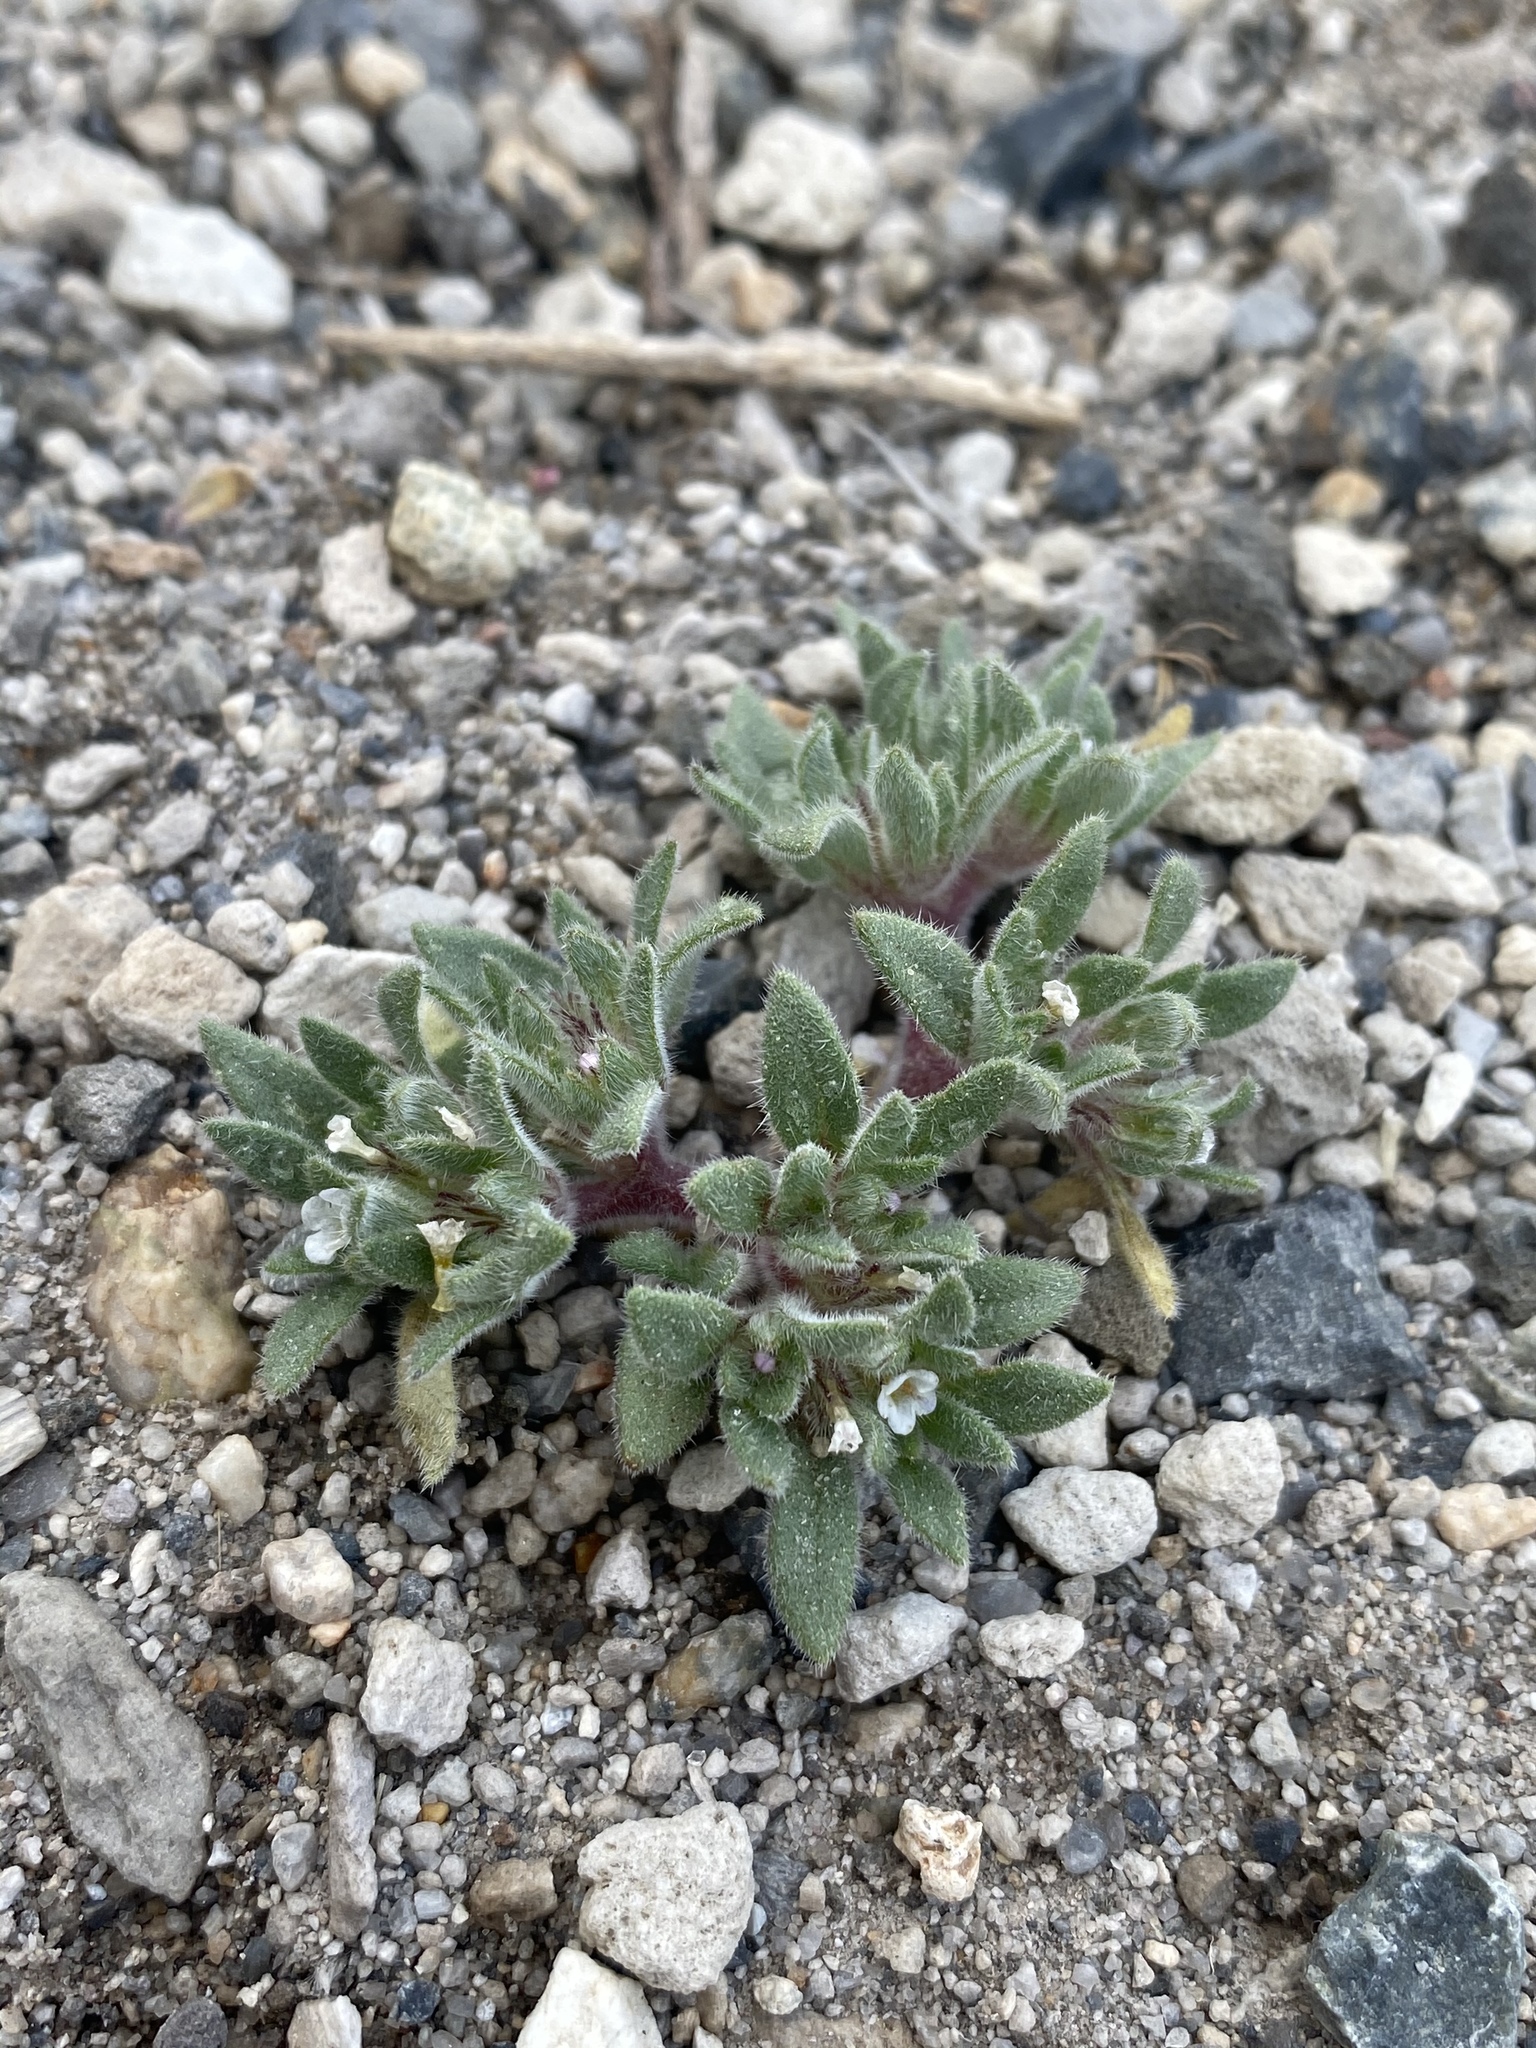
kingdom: Plantae
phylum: Tracheophyta
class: Magnoliopsida
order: Boraginales
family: Namaceae
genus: Nama
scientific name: Nama densa
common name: Leafy nama
